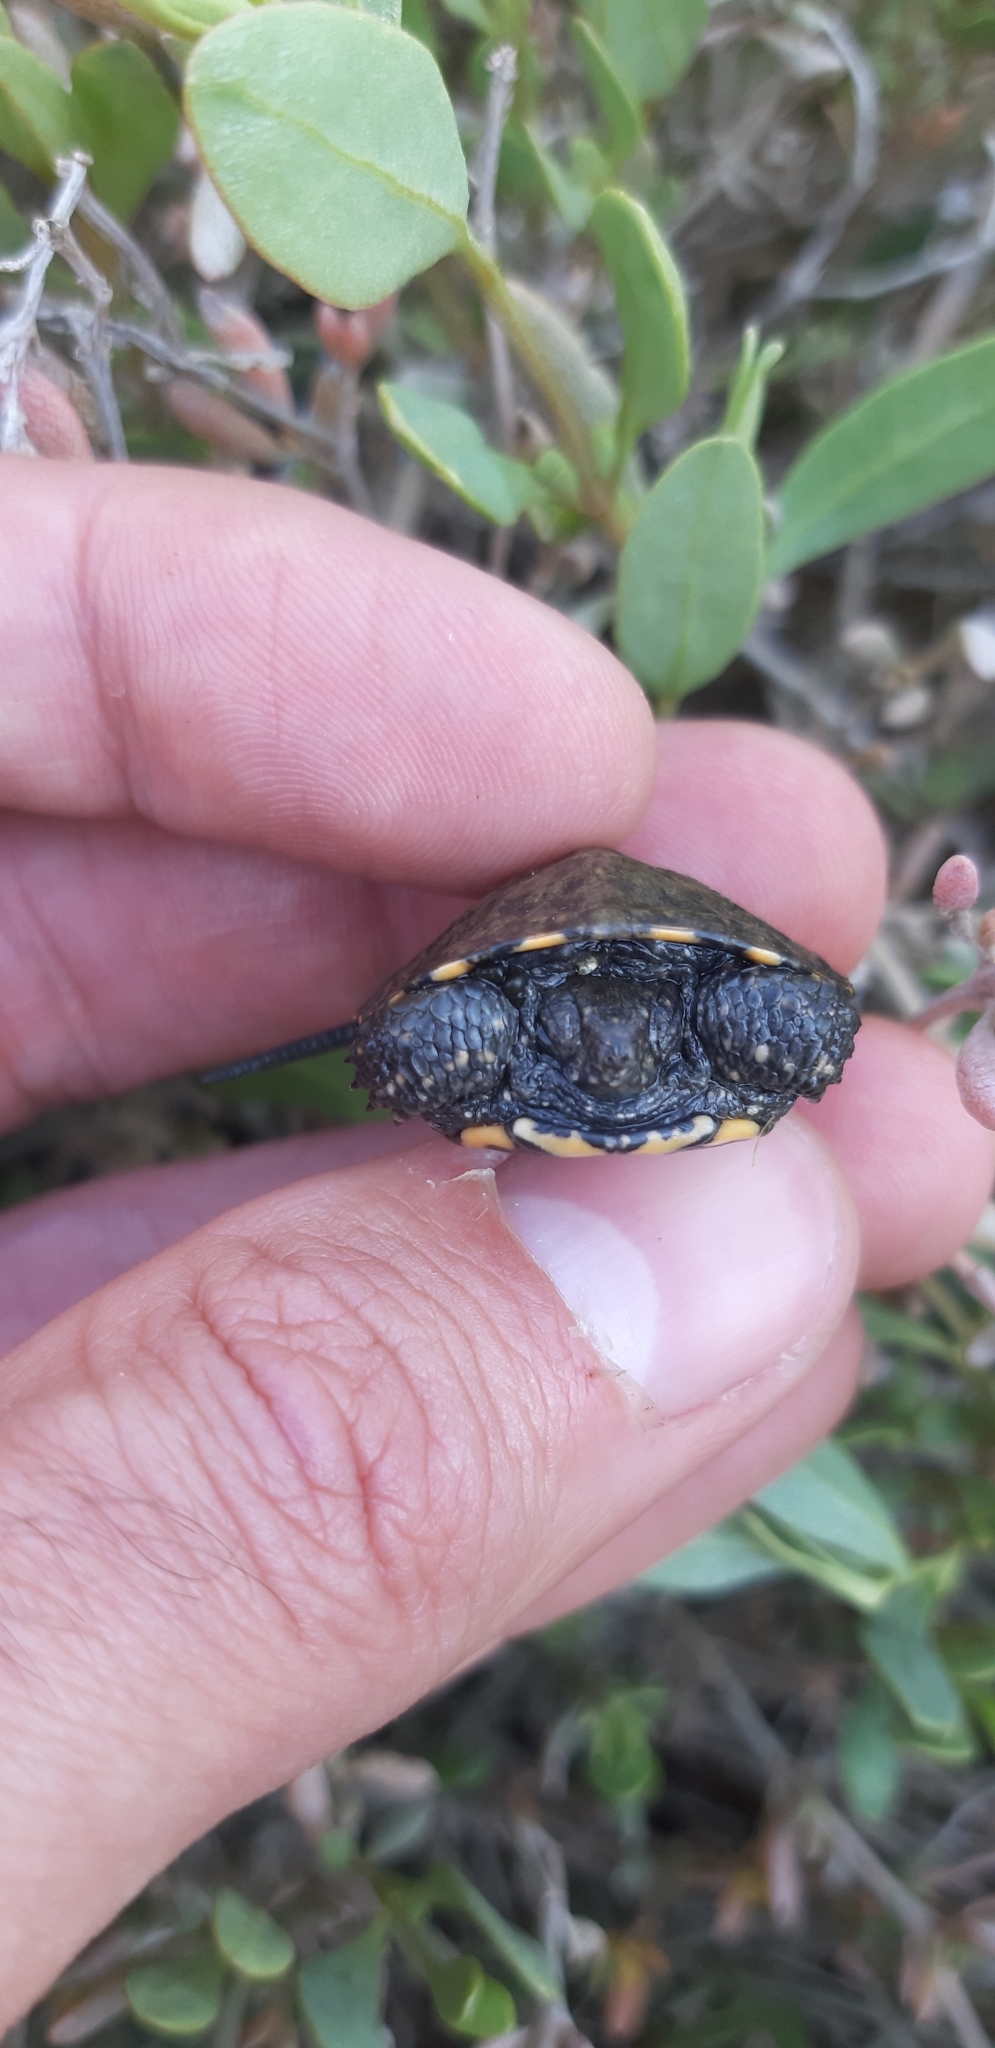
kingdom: Animalia
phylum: Chordata
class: Testudines
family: Emydidae
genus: Emys
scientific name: Emys orbicularis
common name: European pond turtle
